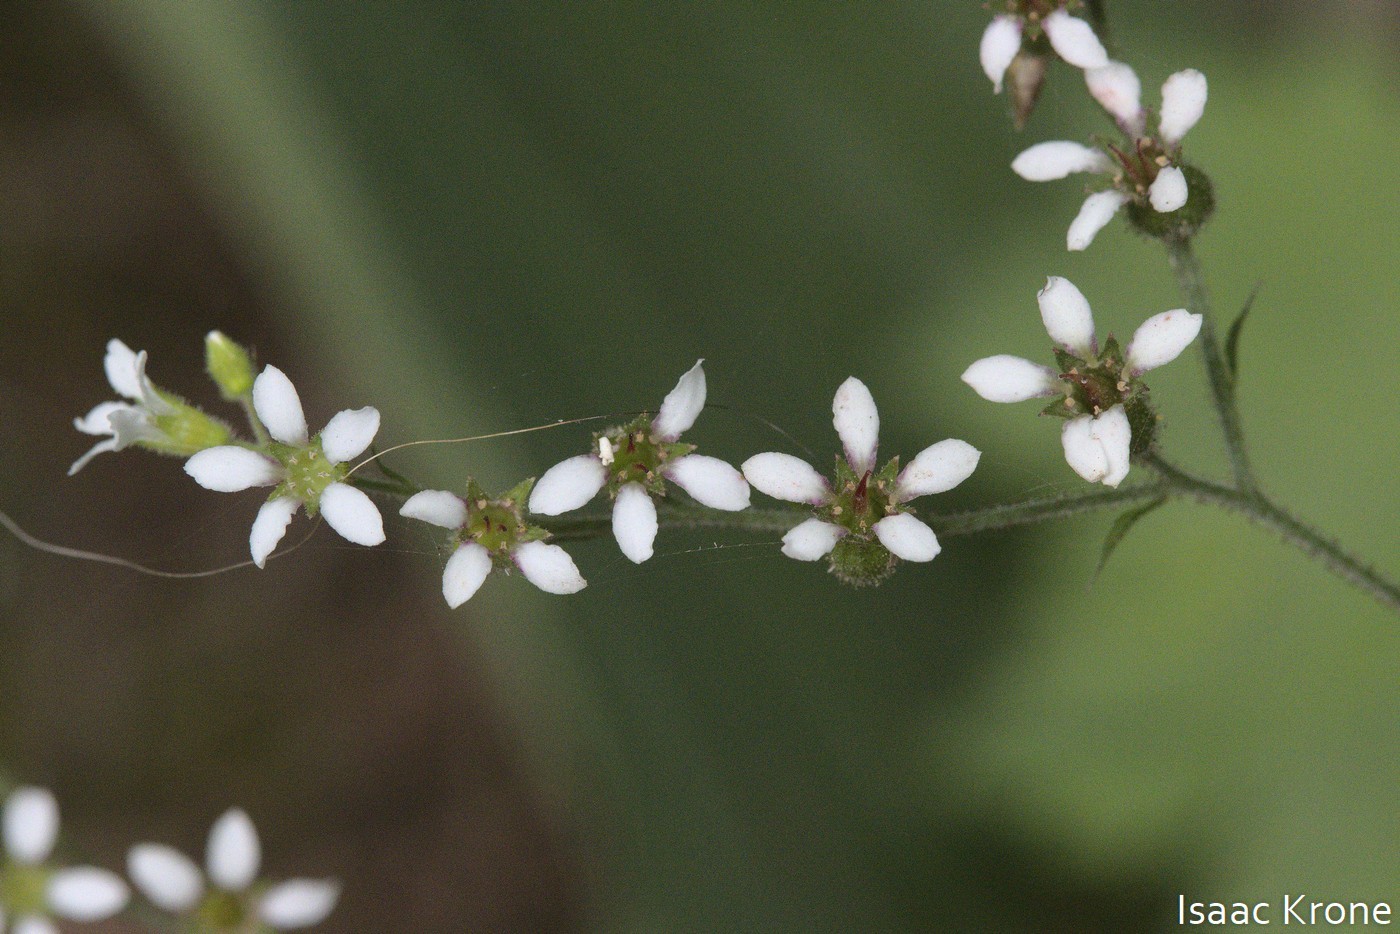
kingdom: Plantae
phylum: Tracheophyta
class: Magnoliopsida
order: Saxifragales
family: Saxifragaceae
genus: Boykinia
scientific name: Boykinia occidentalis
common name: Coast boykinia
